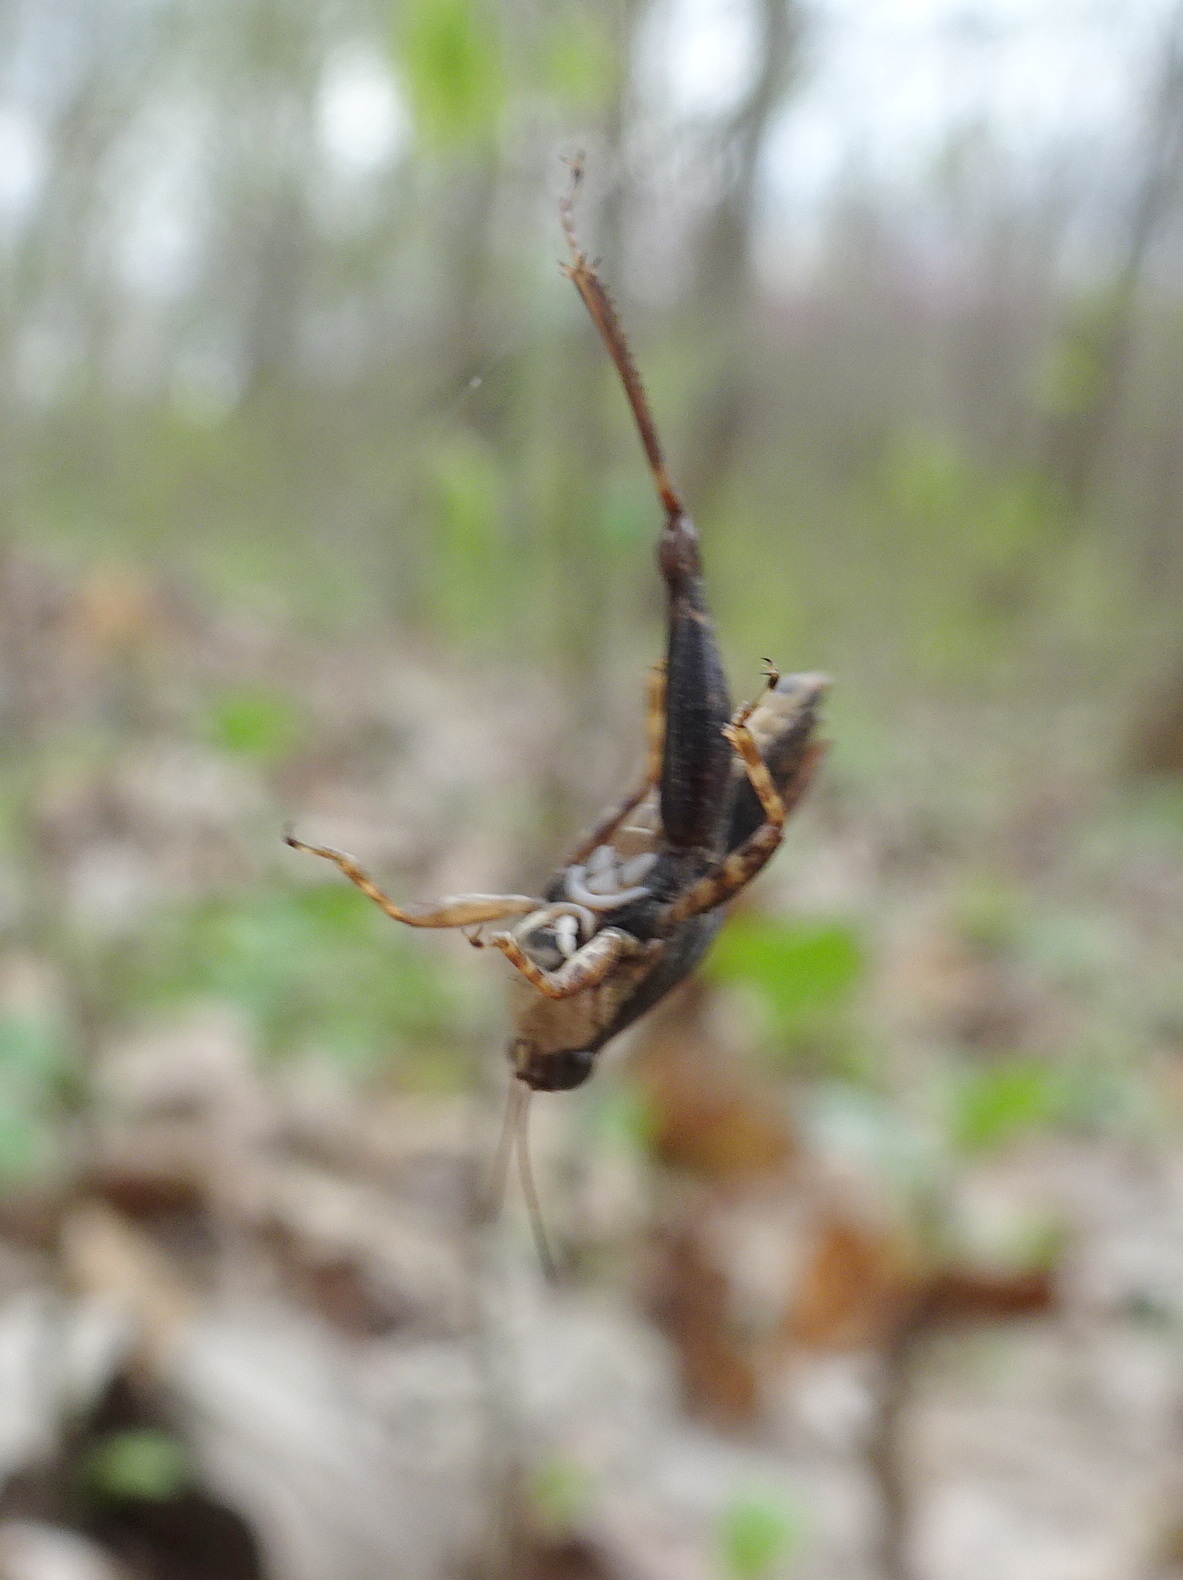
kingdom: Animalia
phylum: Arthropoda
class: Insecta
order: Orthoptera
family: Tetrigidae
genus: Tettigidea
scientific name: Tettigidea laterale
